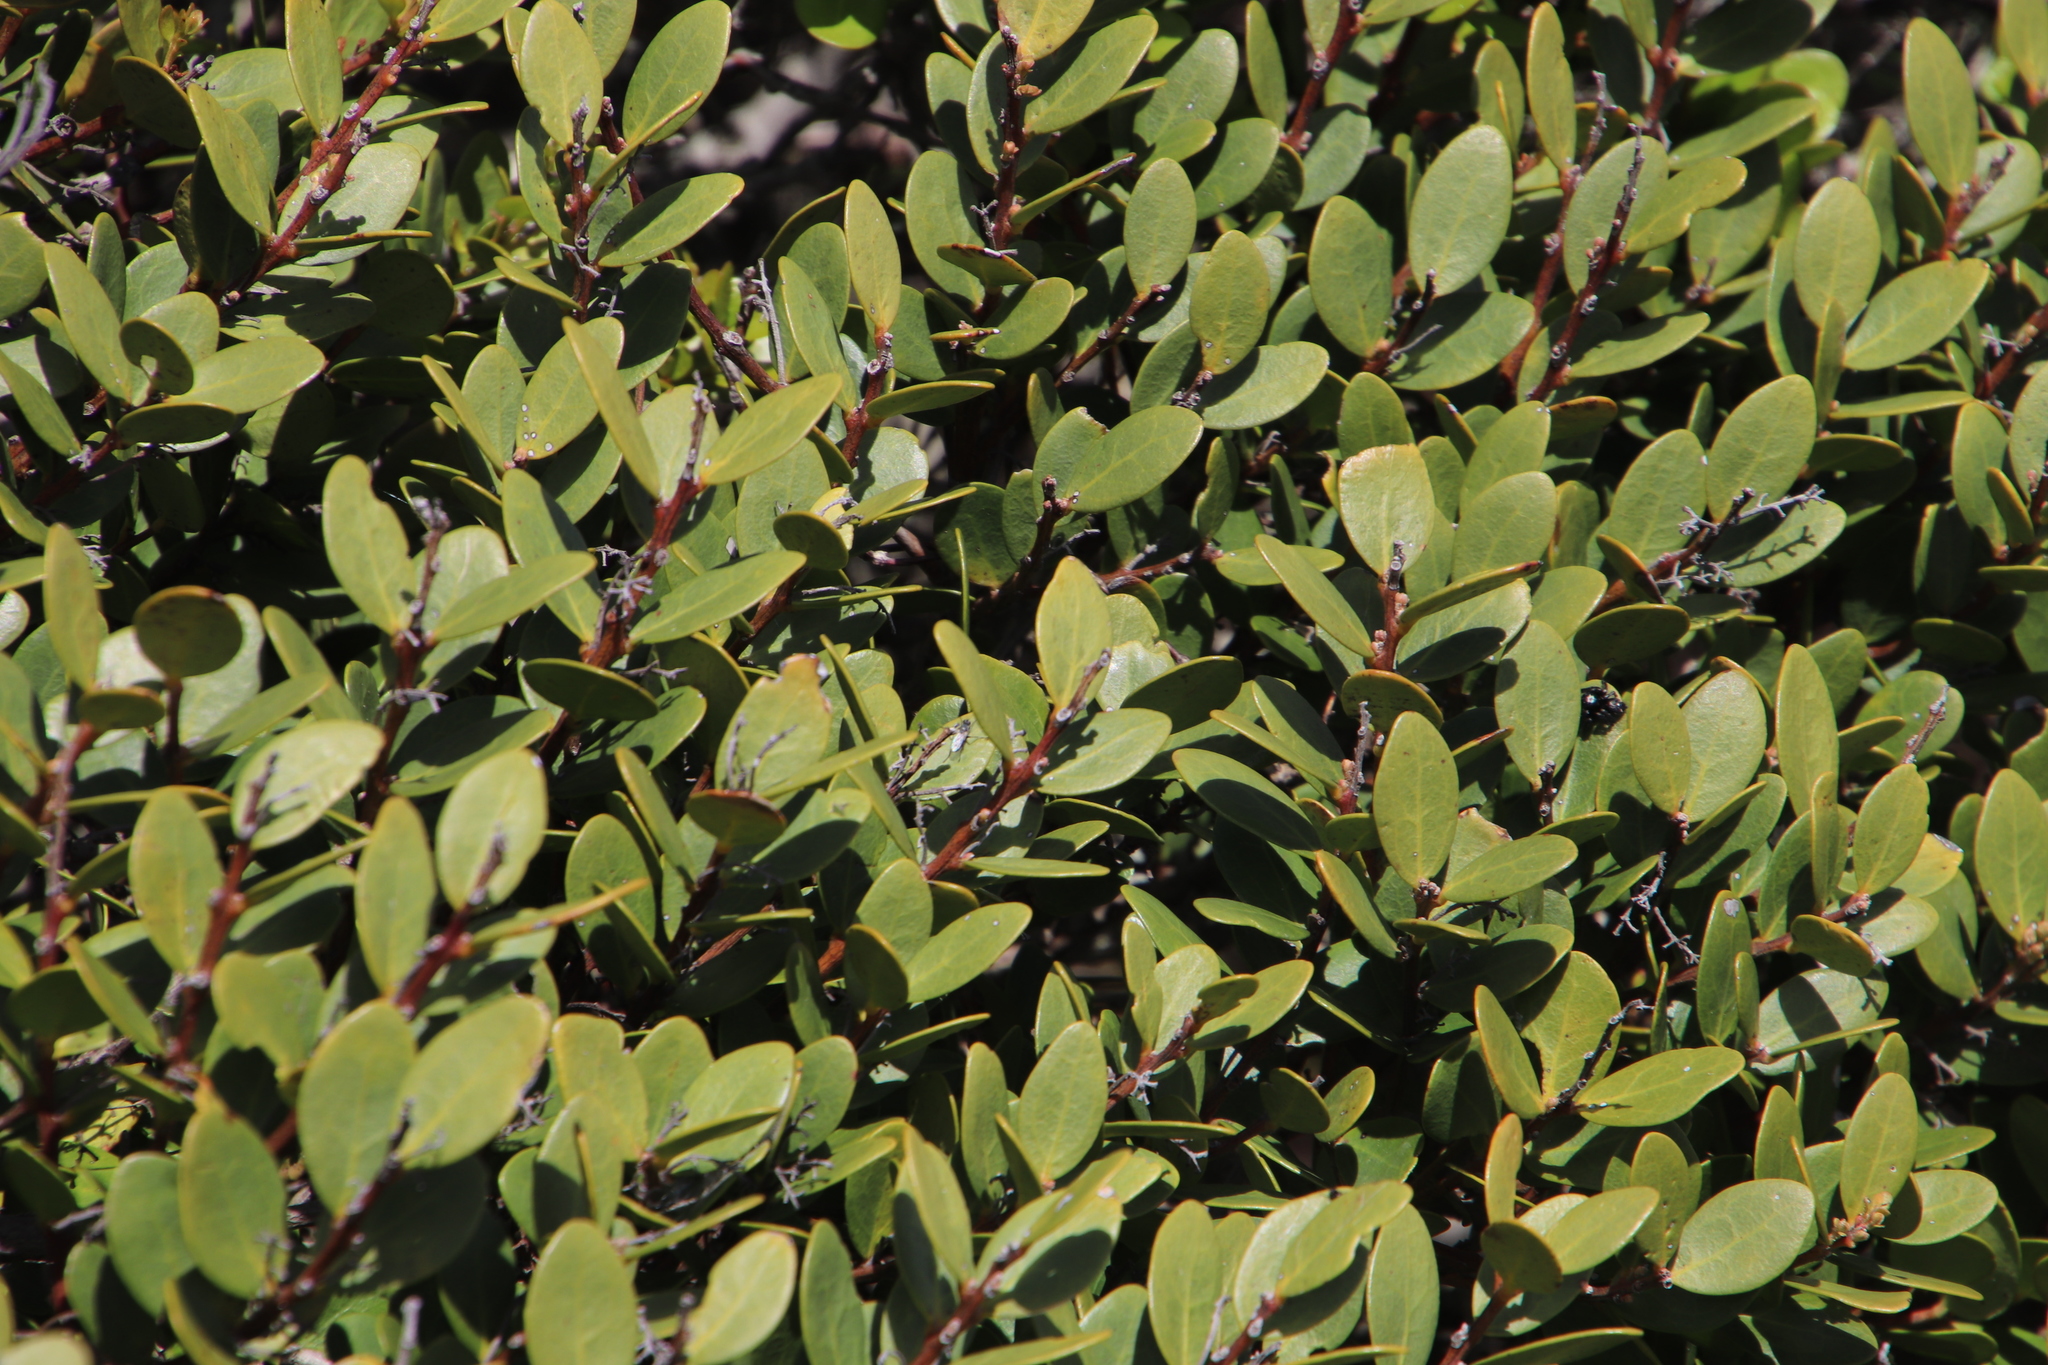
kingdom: Plantae
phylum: Tracheophyta
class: Magnoliopsida
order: Ericales
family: Ebenaceae
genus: Euclea
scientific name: Euclea racemosa
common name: Dune guarri
